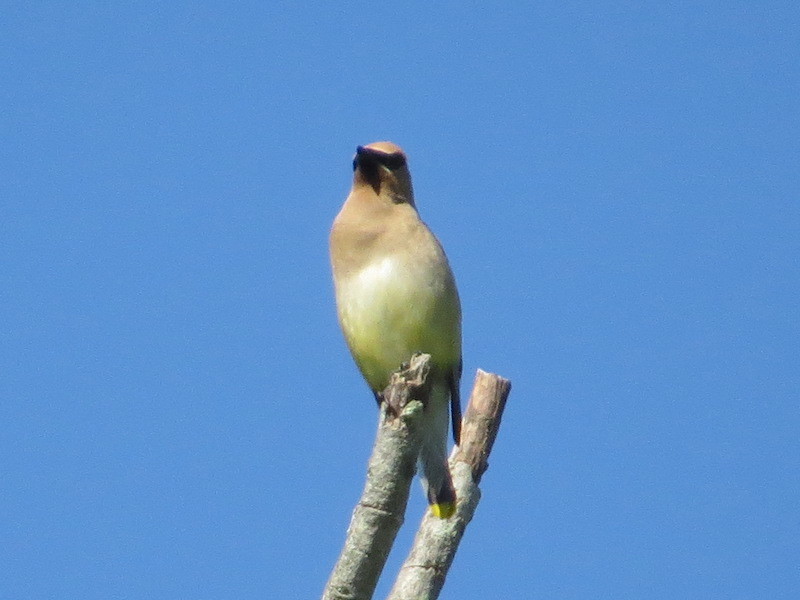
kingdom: Animalia
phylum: Chordata
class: Aves
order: Passeriformes
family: Bombycillidae
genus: Bombycilla
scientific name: Bombycilla cedrorum
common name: Cedar waxwing
